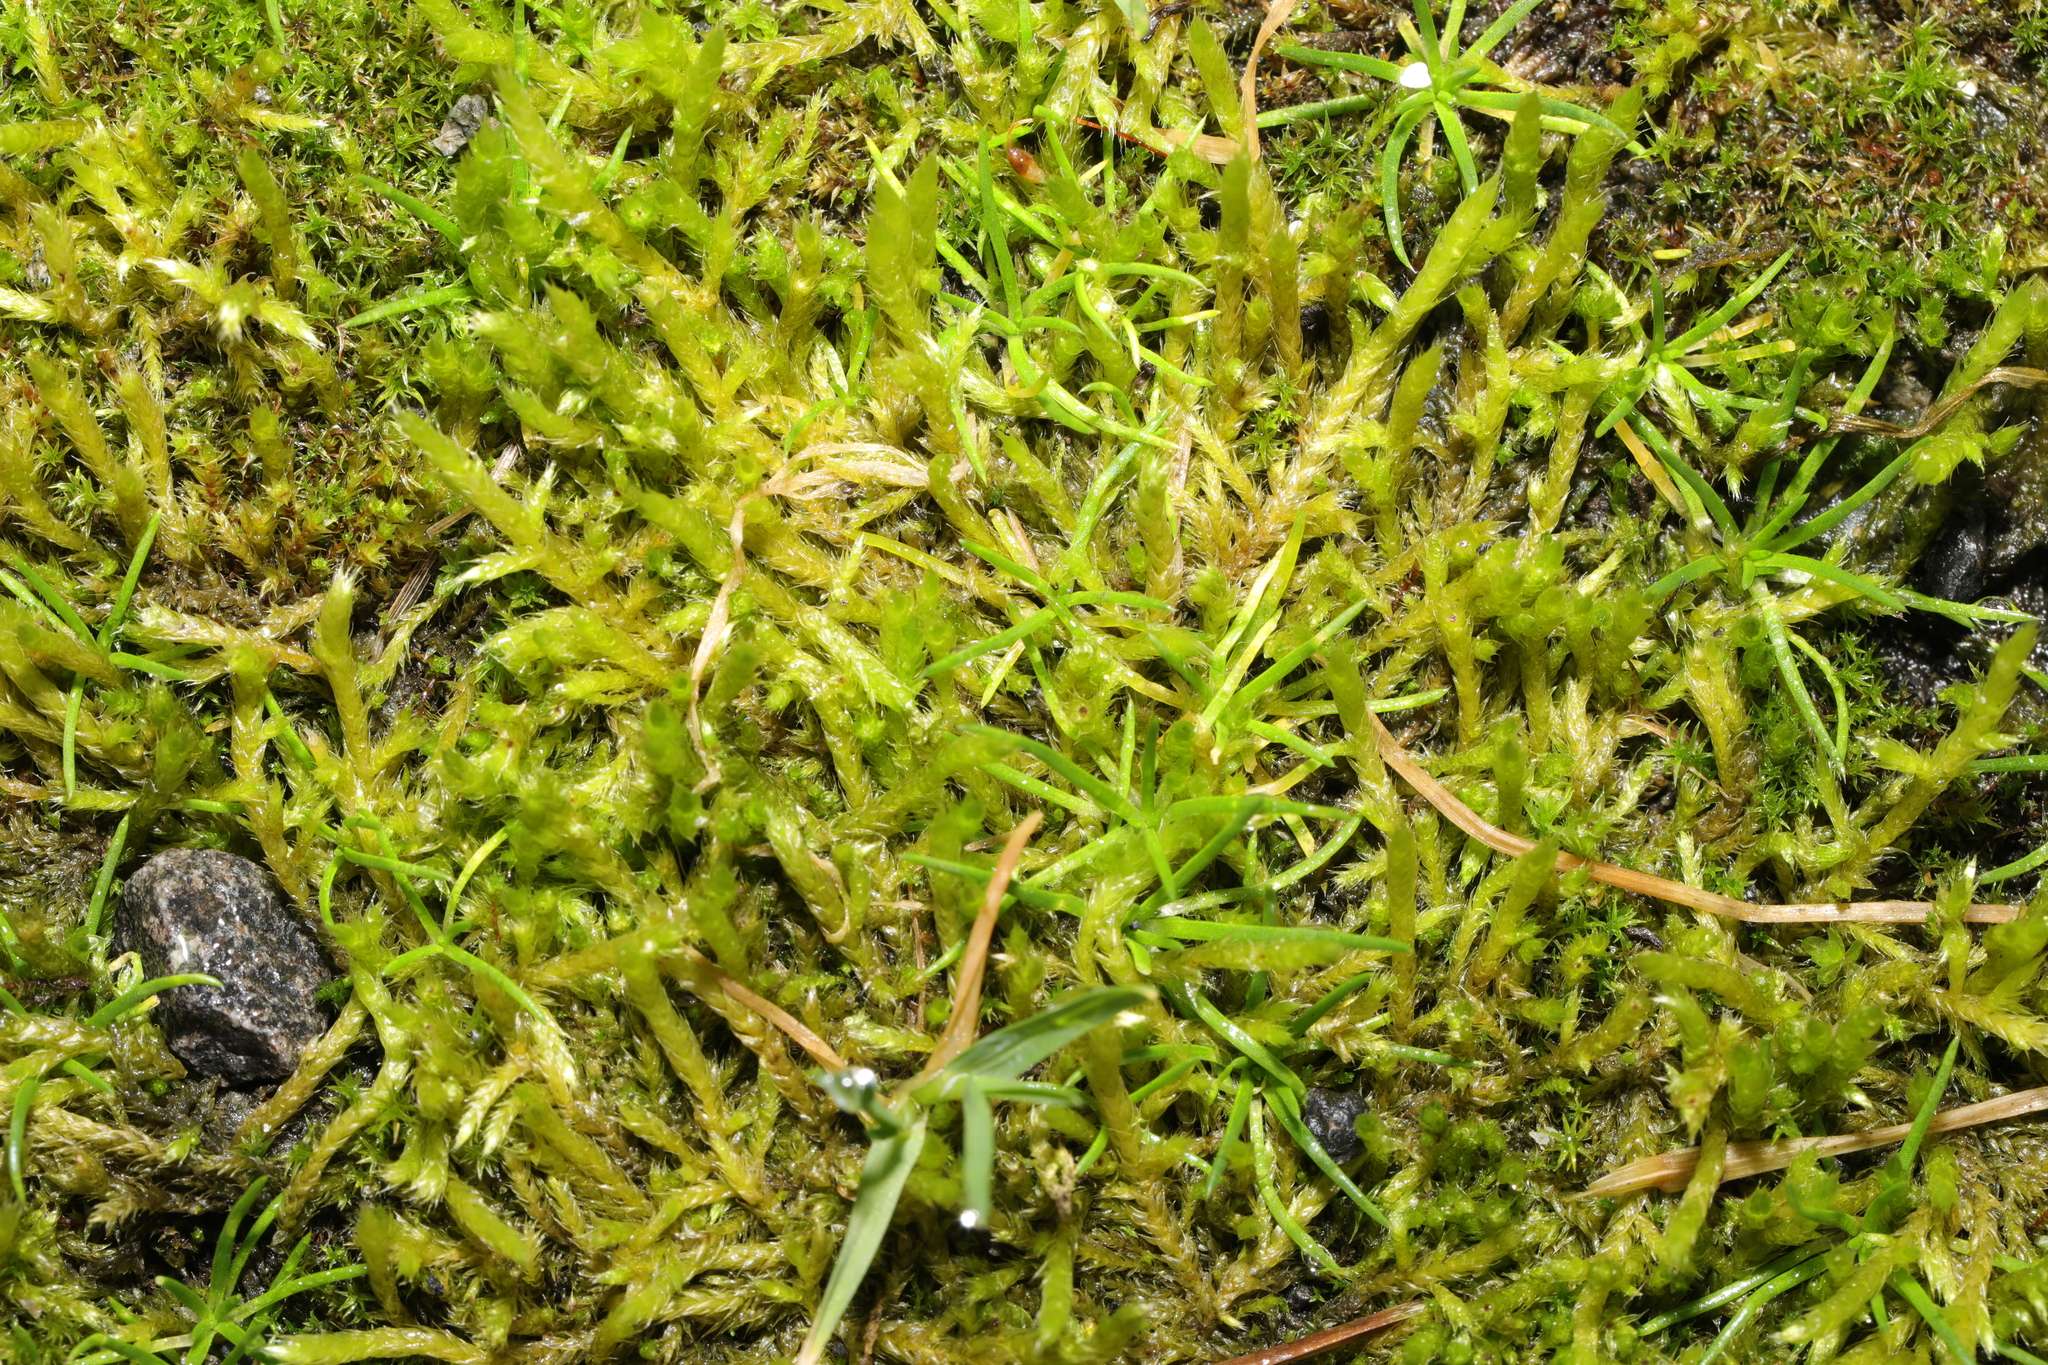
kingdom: Plantae
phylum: Bryophyta
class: Bryopsida
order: Hypnales
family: Brachytheciaceae
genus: Brachythecium
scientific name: Brachythecium albicans
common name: Whitish ragged moss
